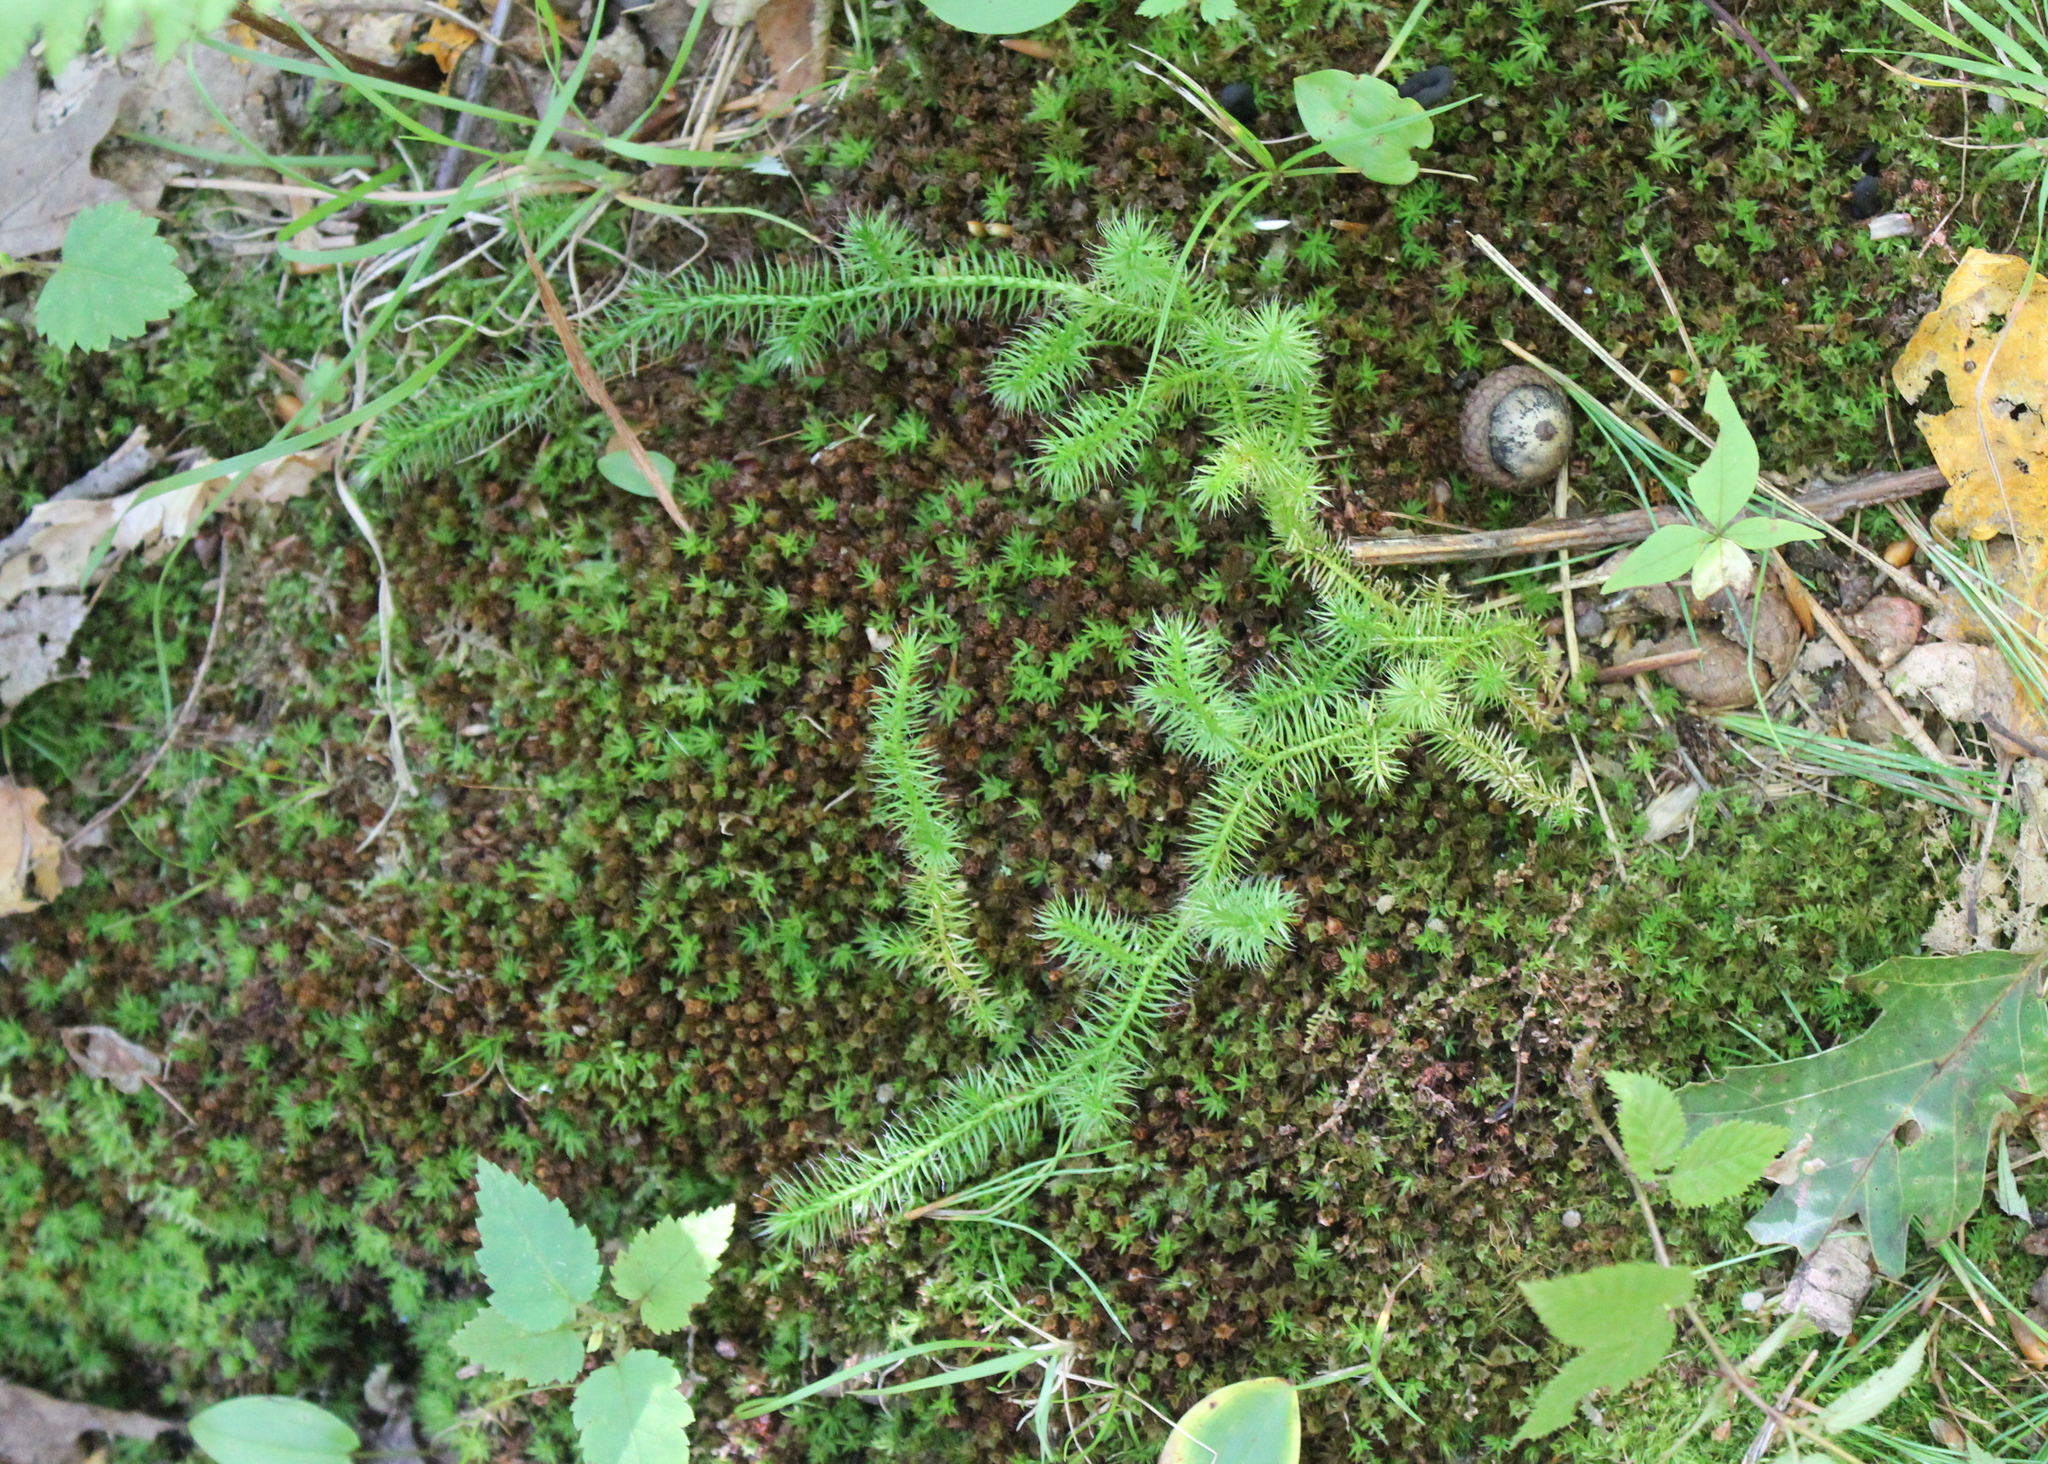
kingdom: Plantae
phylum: Tracheophyta
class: Lycopodiopsida
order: Lycopodiales
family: Lycopodiaceae
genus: Lycopodium
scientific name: Lycopodium clavatum
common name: Stag's-horn clubmoss
